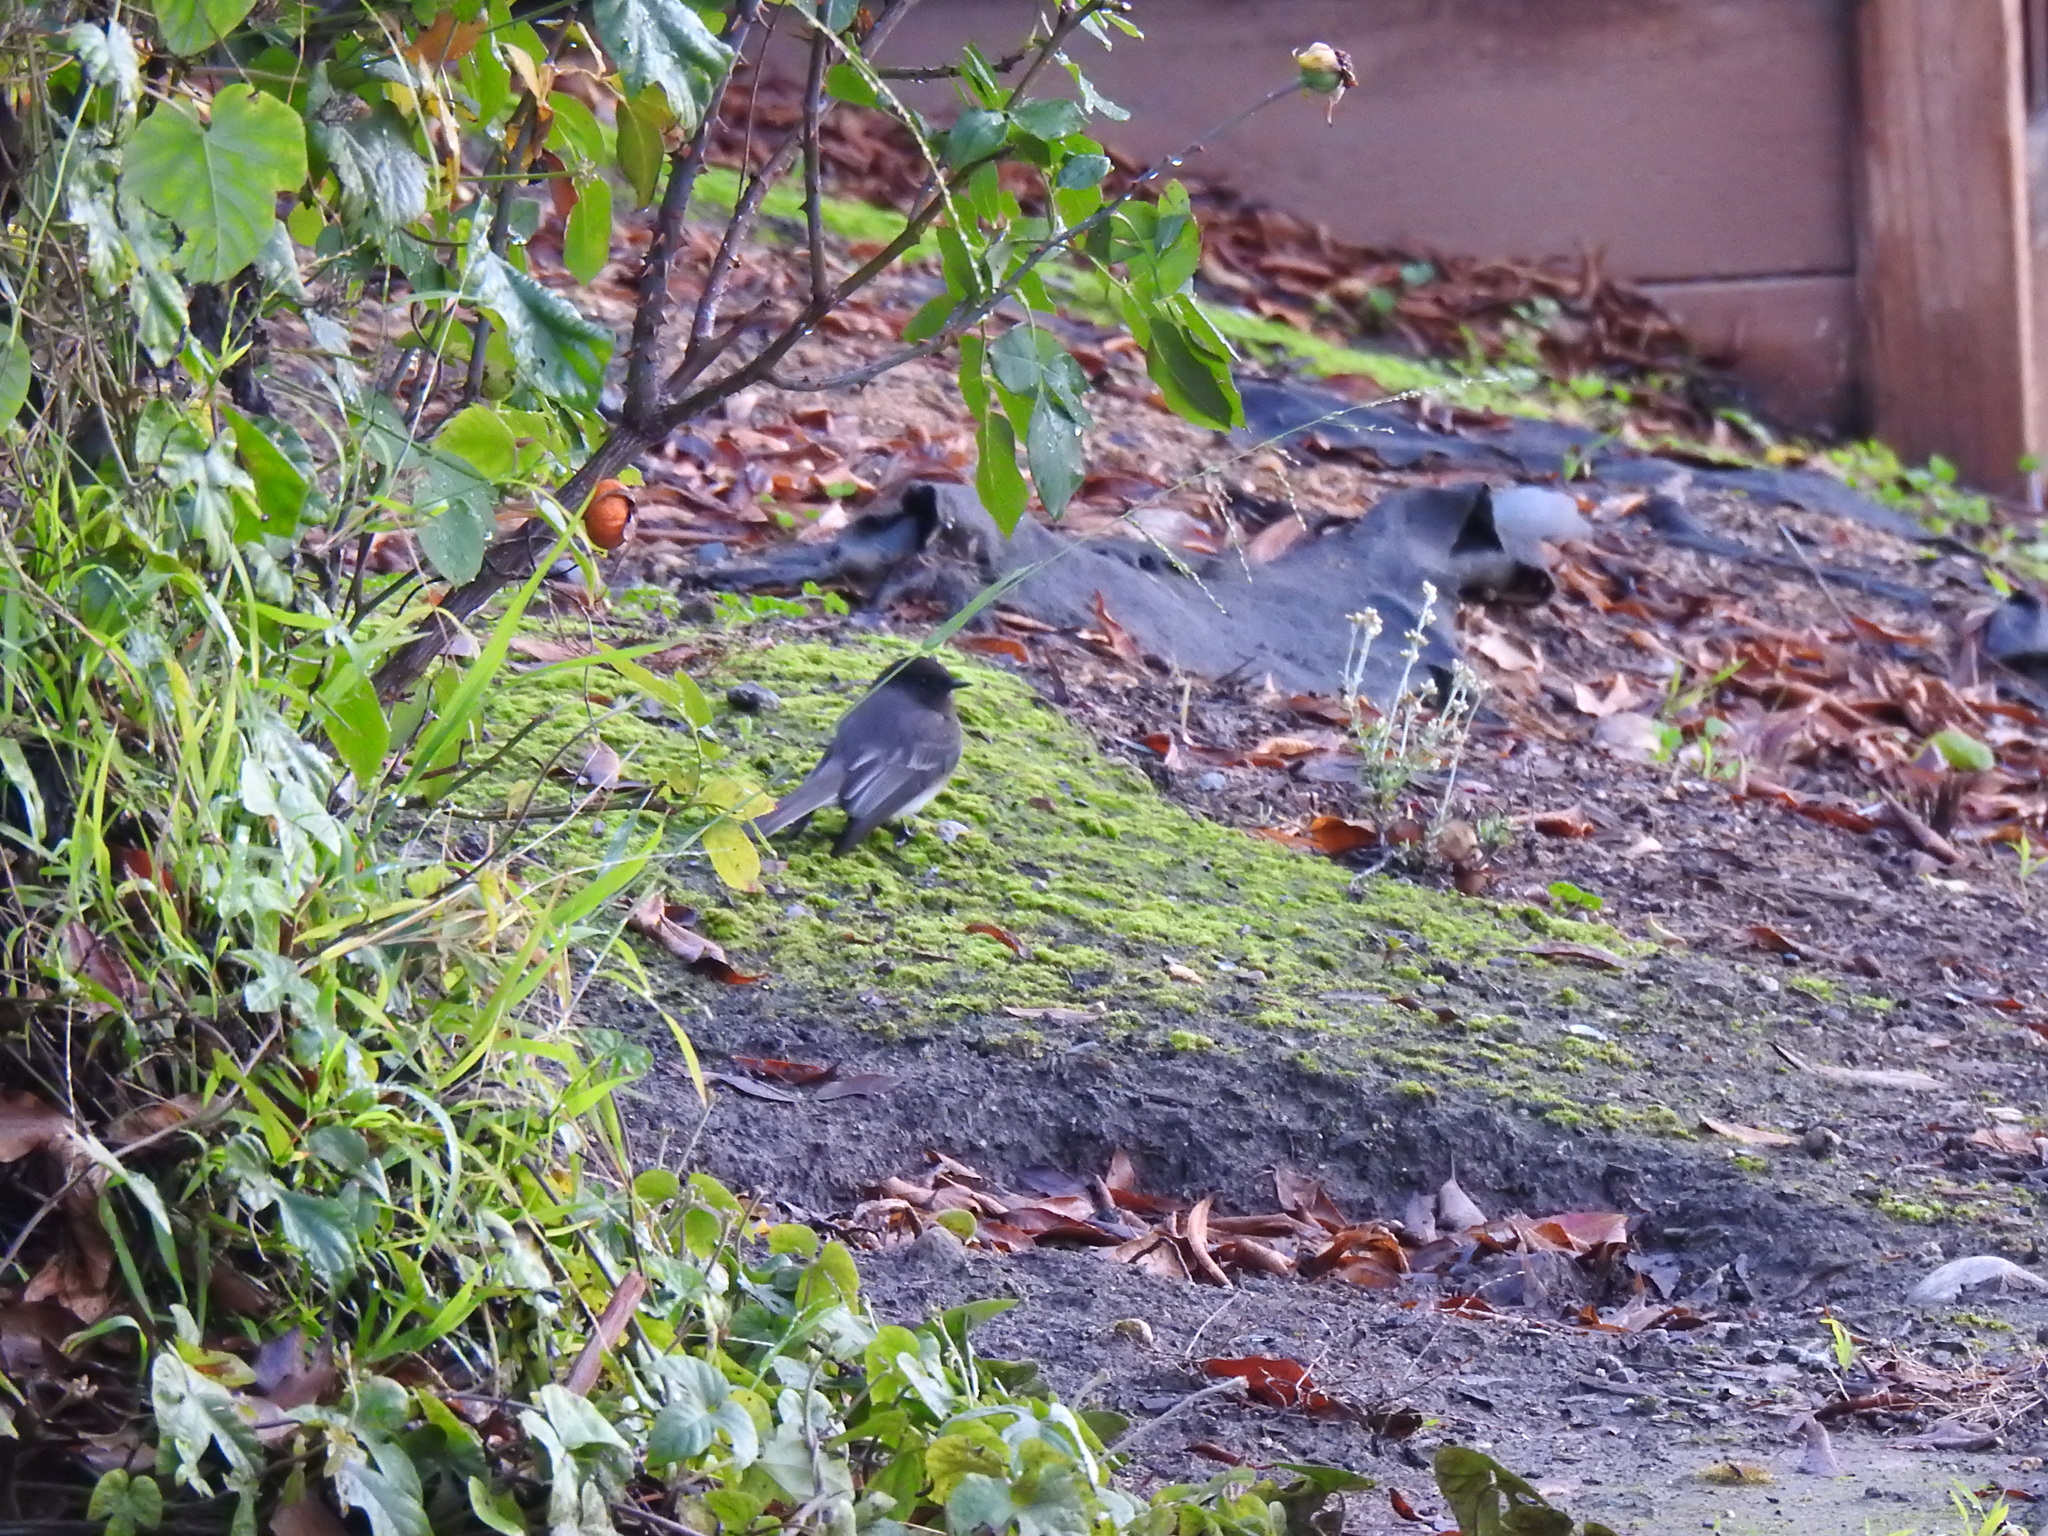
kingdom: Animalia
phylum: Chordata
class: Aves
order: Passeriformes
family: Tyrannidae
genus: Sayornis
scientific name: Sayornis nigricans
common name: Black phoebe
